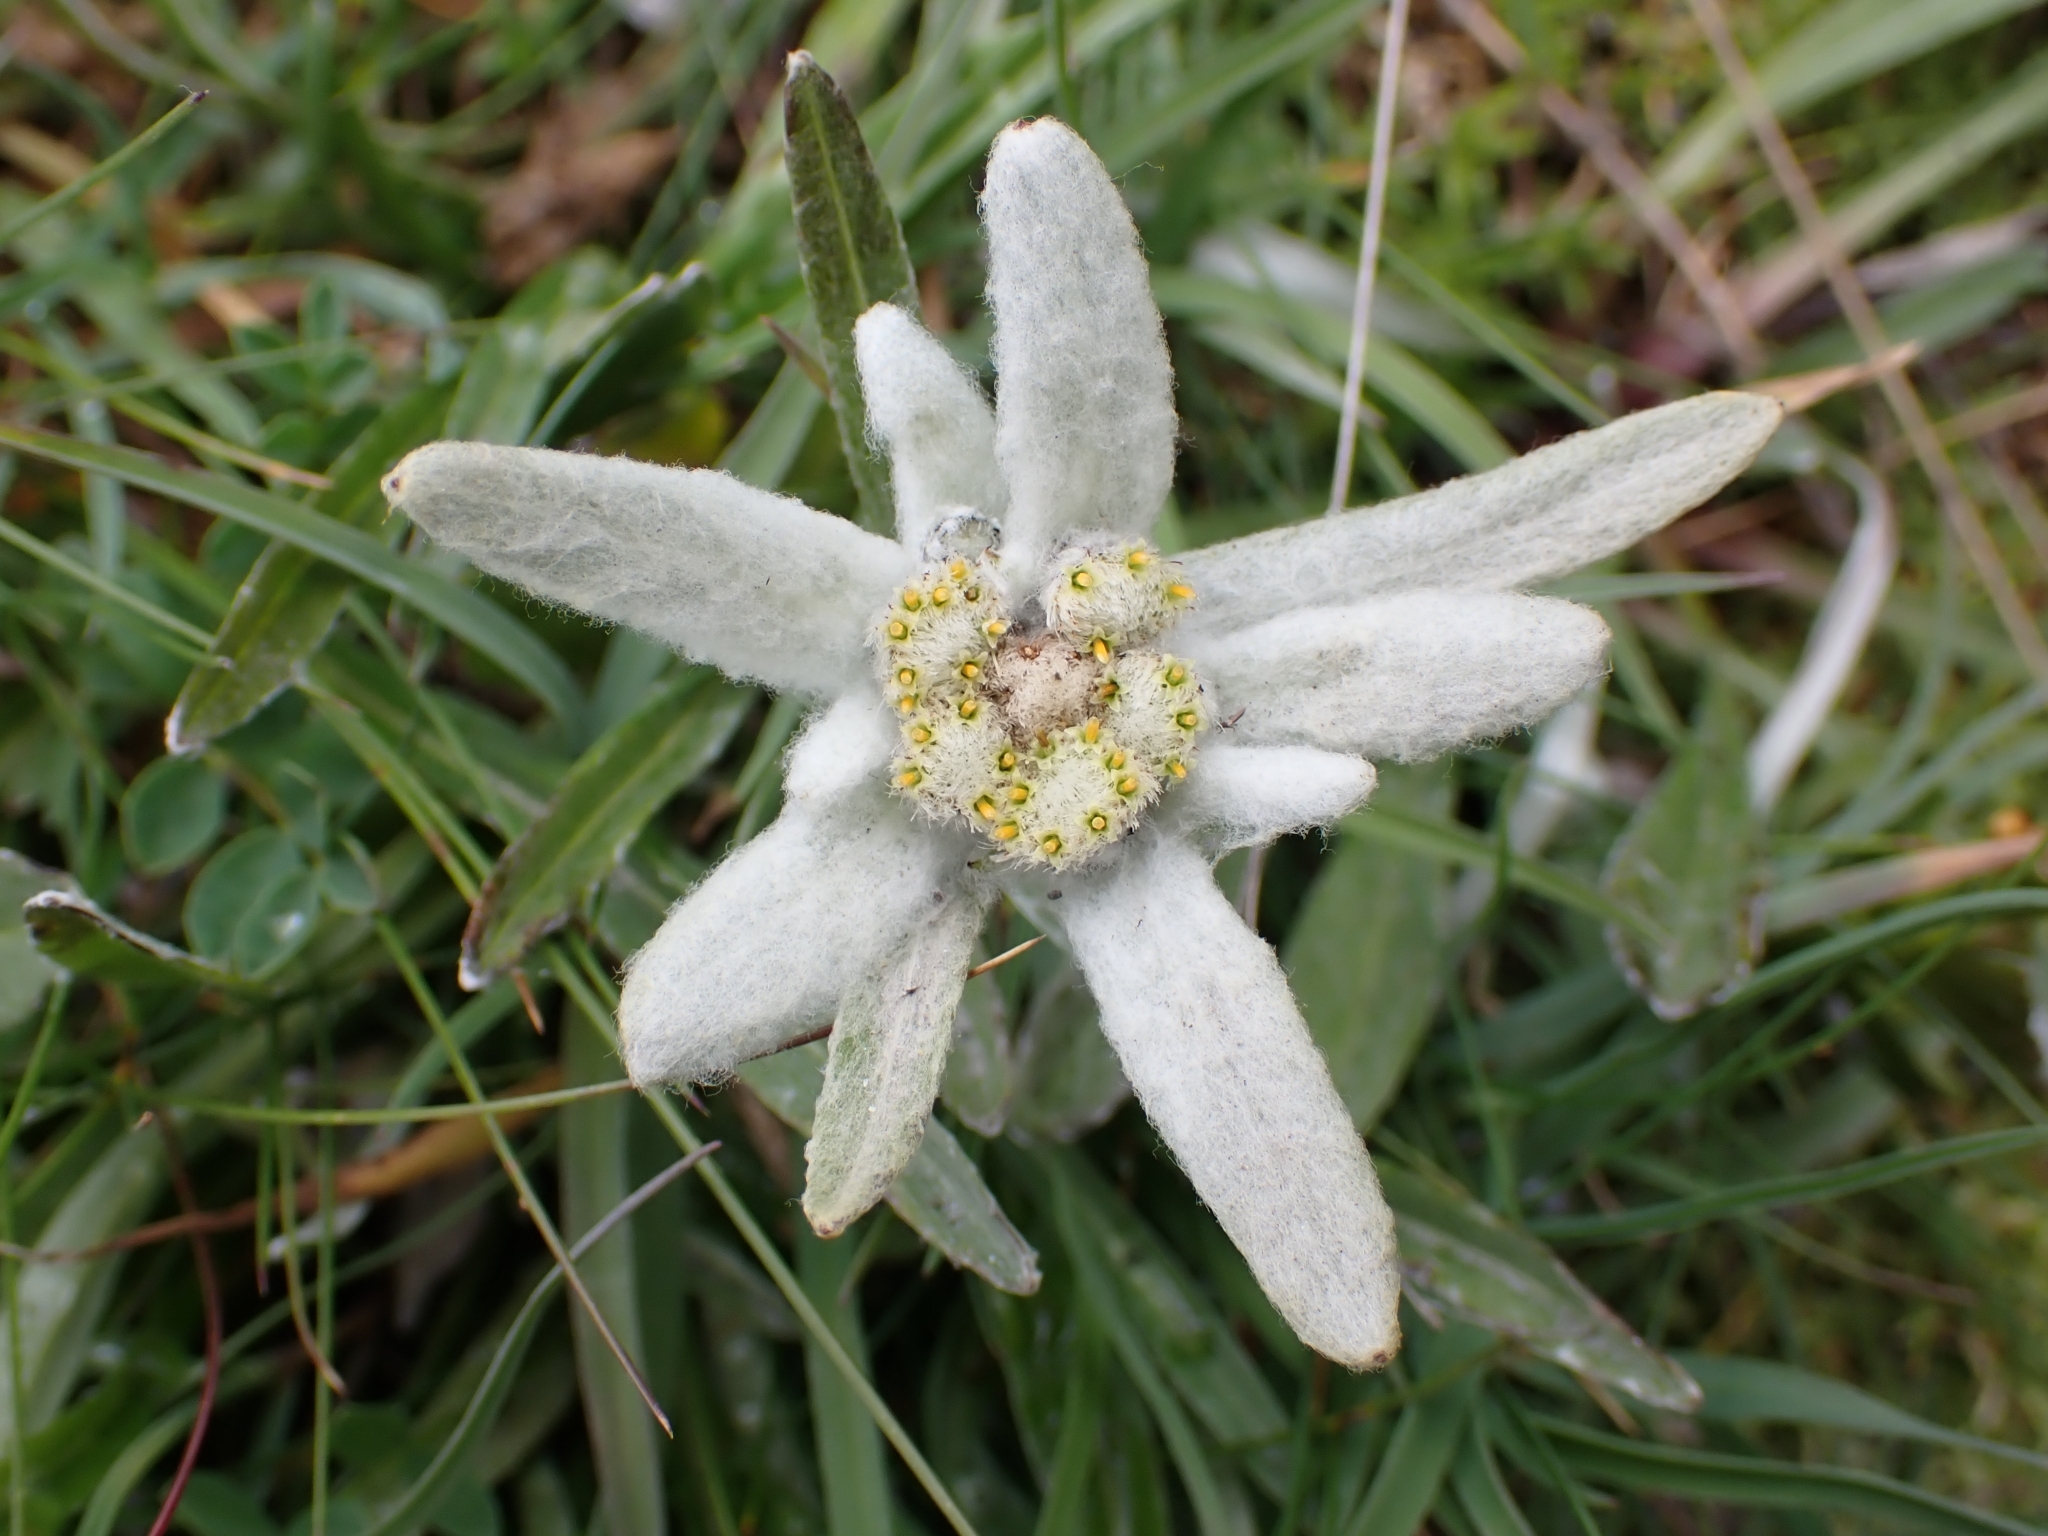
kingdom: Plantae
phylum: Tracheophyta
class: Magnoliopsida
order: Asterales
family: Asteraceae
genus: Leontopodium
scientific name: Leontopodium nivale
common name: Edelweiss
